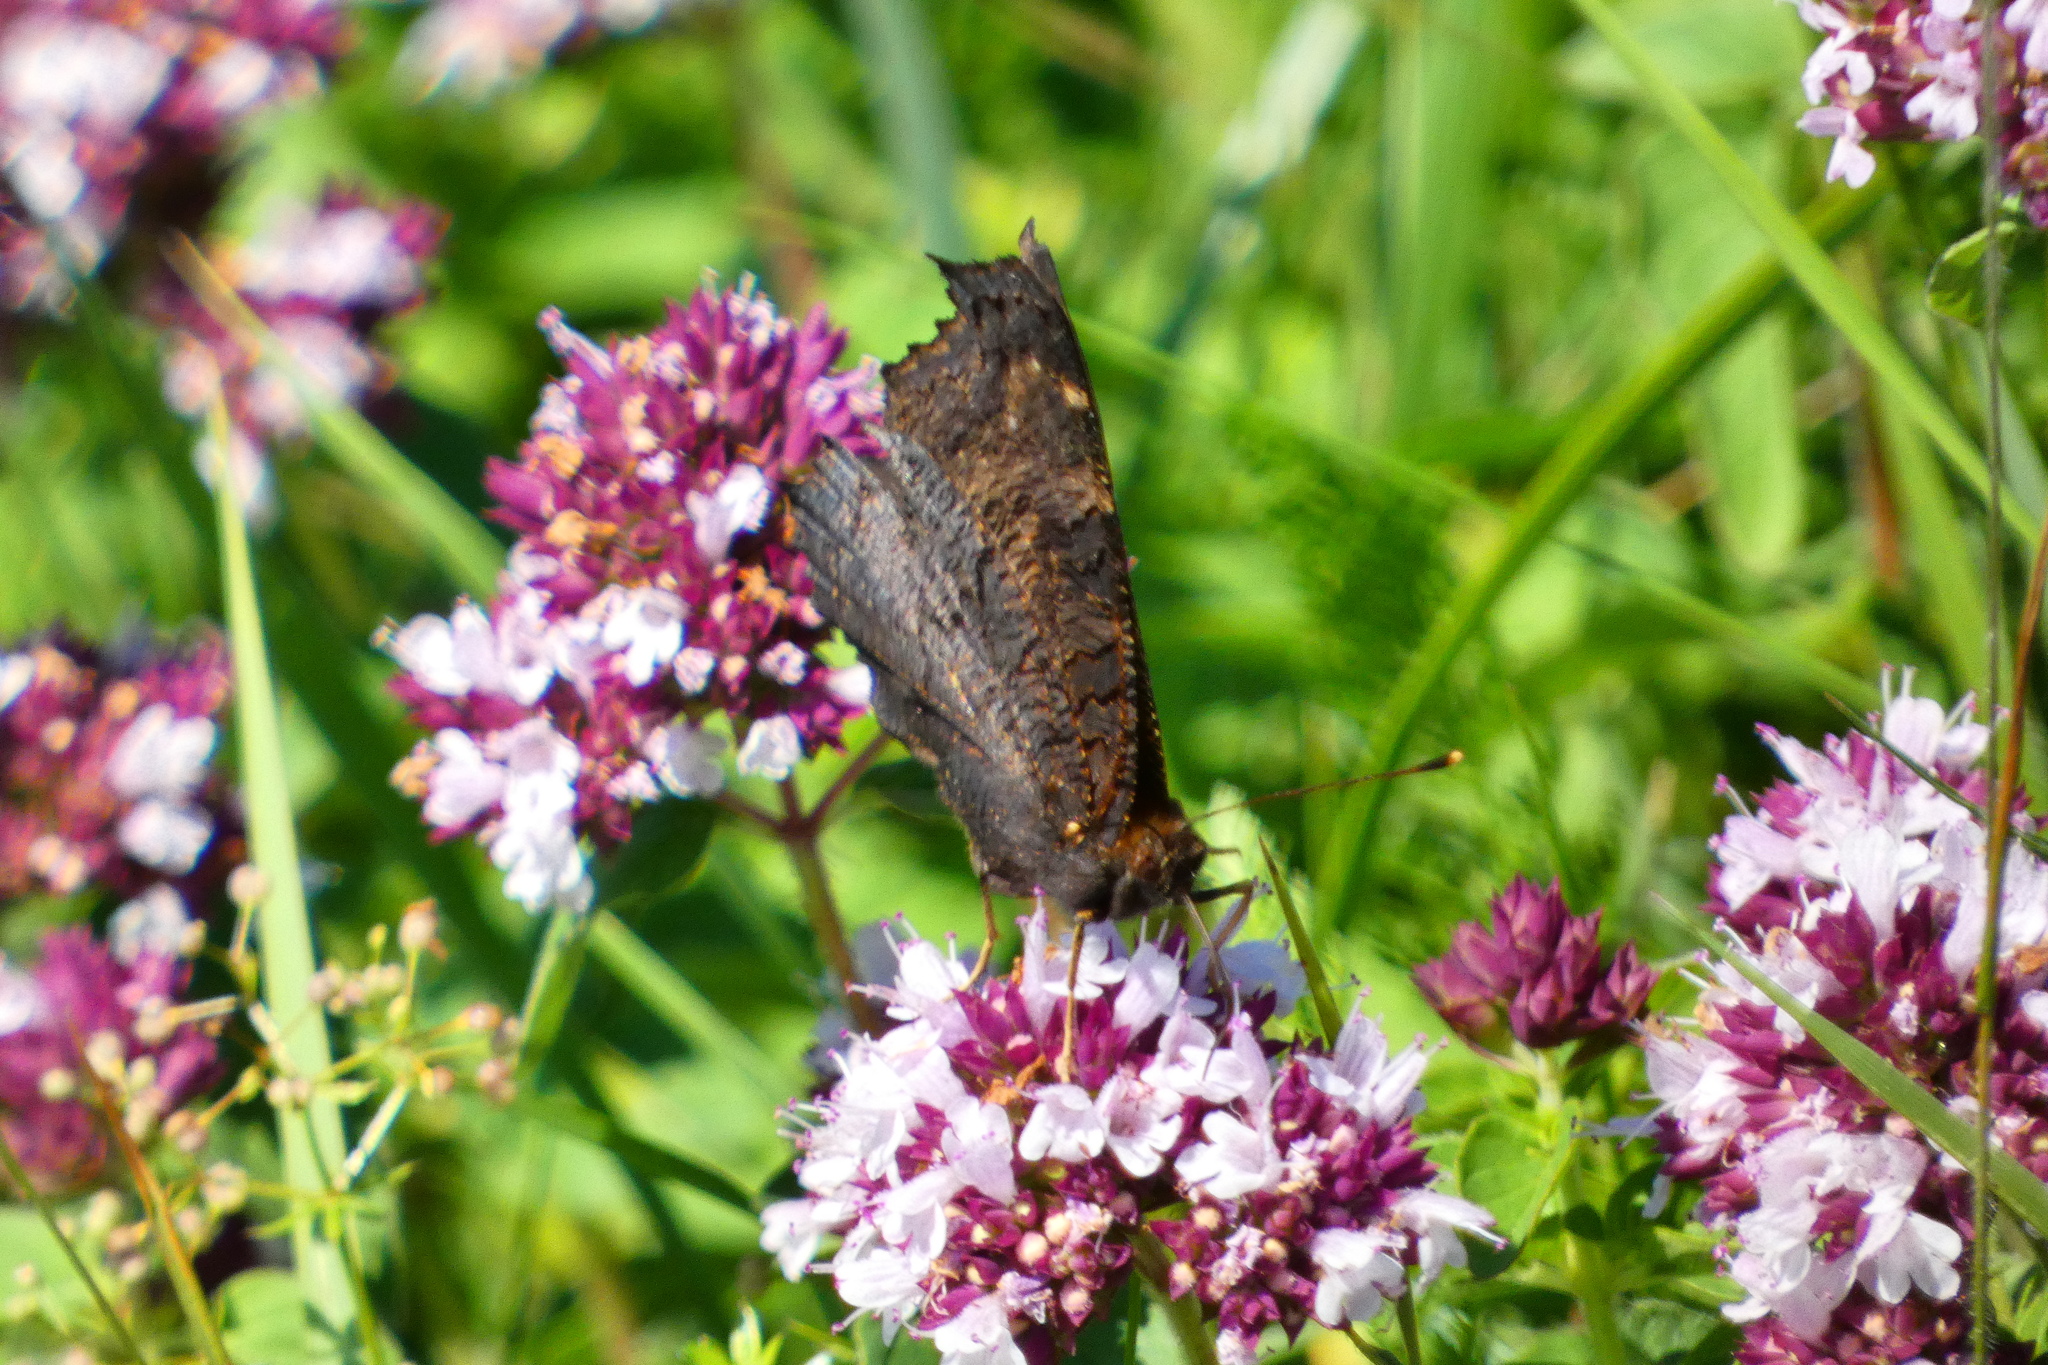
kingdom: Animalia
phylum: Arthropoda
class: Insecta
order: Lepidoptera
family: Nymphalidae
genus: Aglais
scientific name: Aglais io
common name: Peacock
